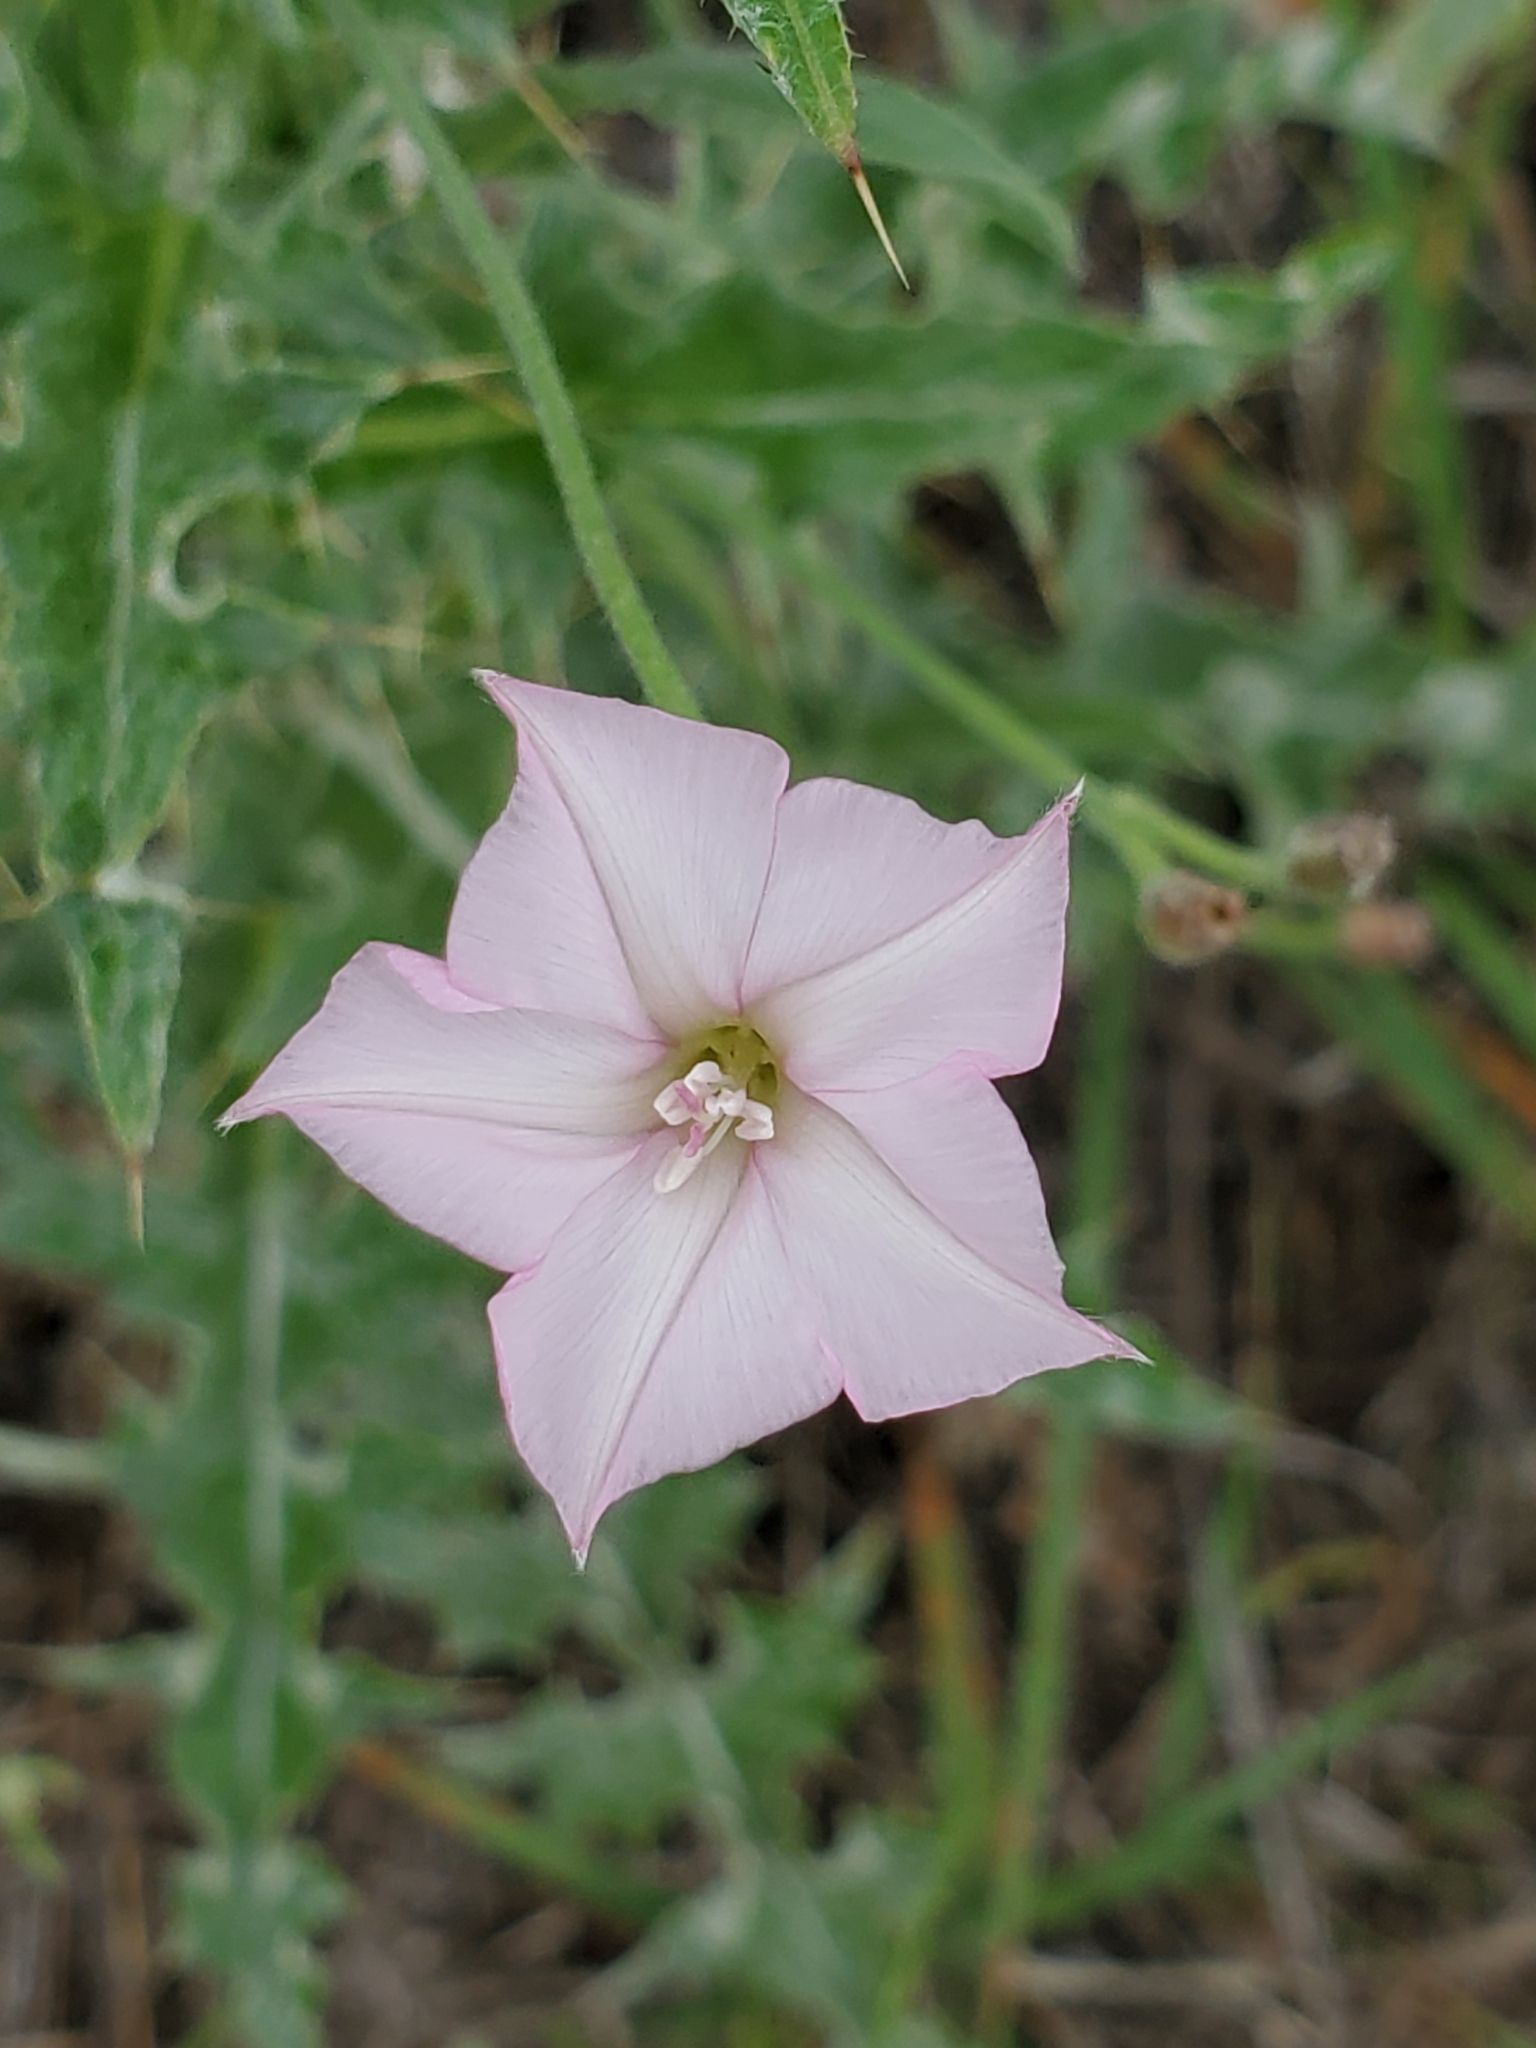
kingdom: Plantae
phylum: Tracheophyta
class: Magnoliopsida
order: Solanales
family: Convolvulaceae
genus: Convolvulus
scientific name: Convolvulus equitans
